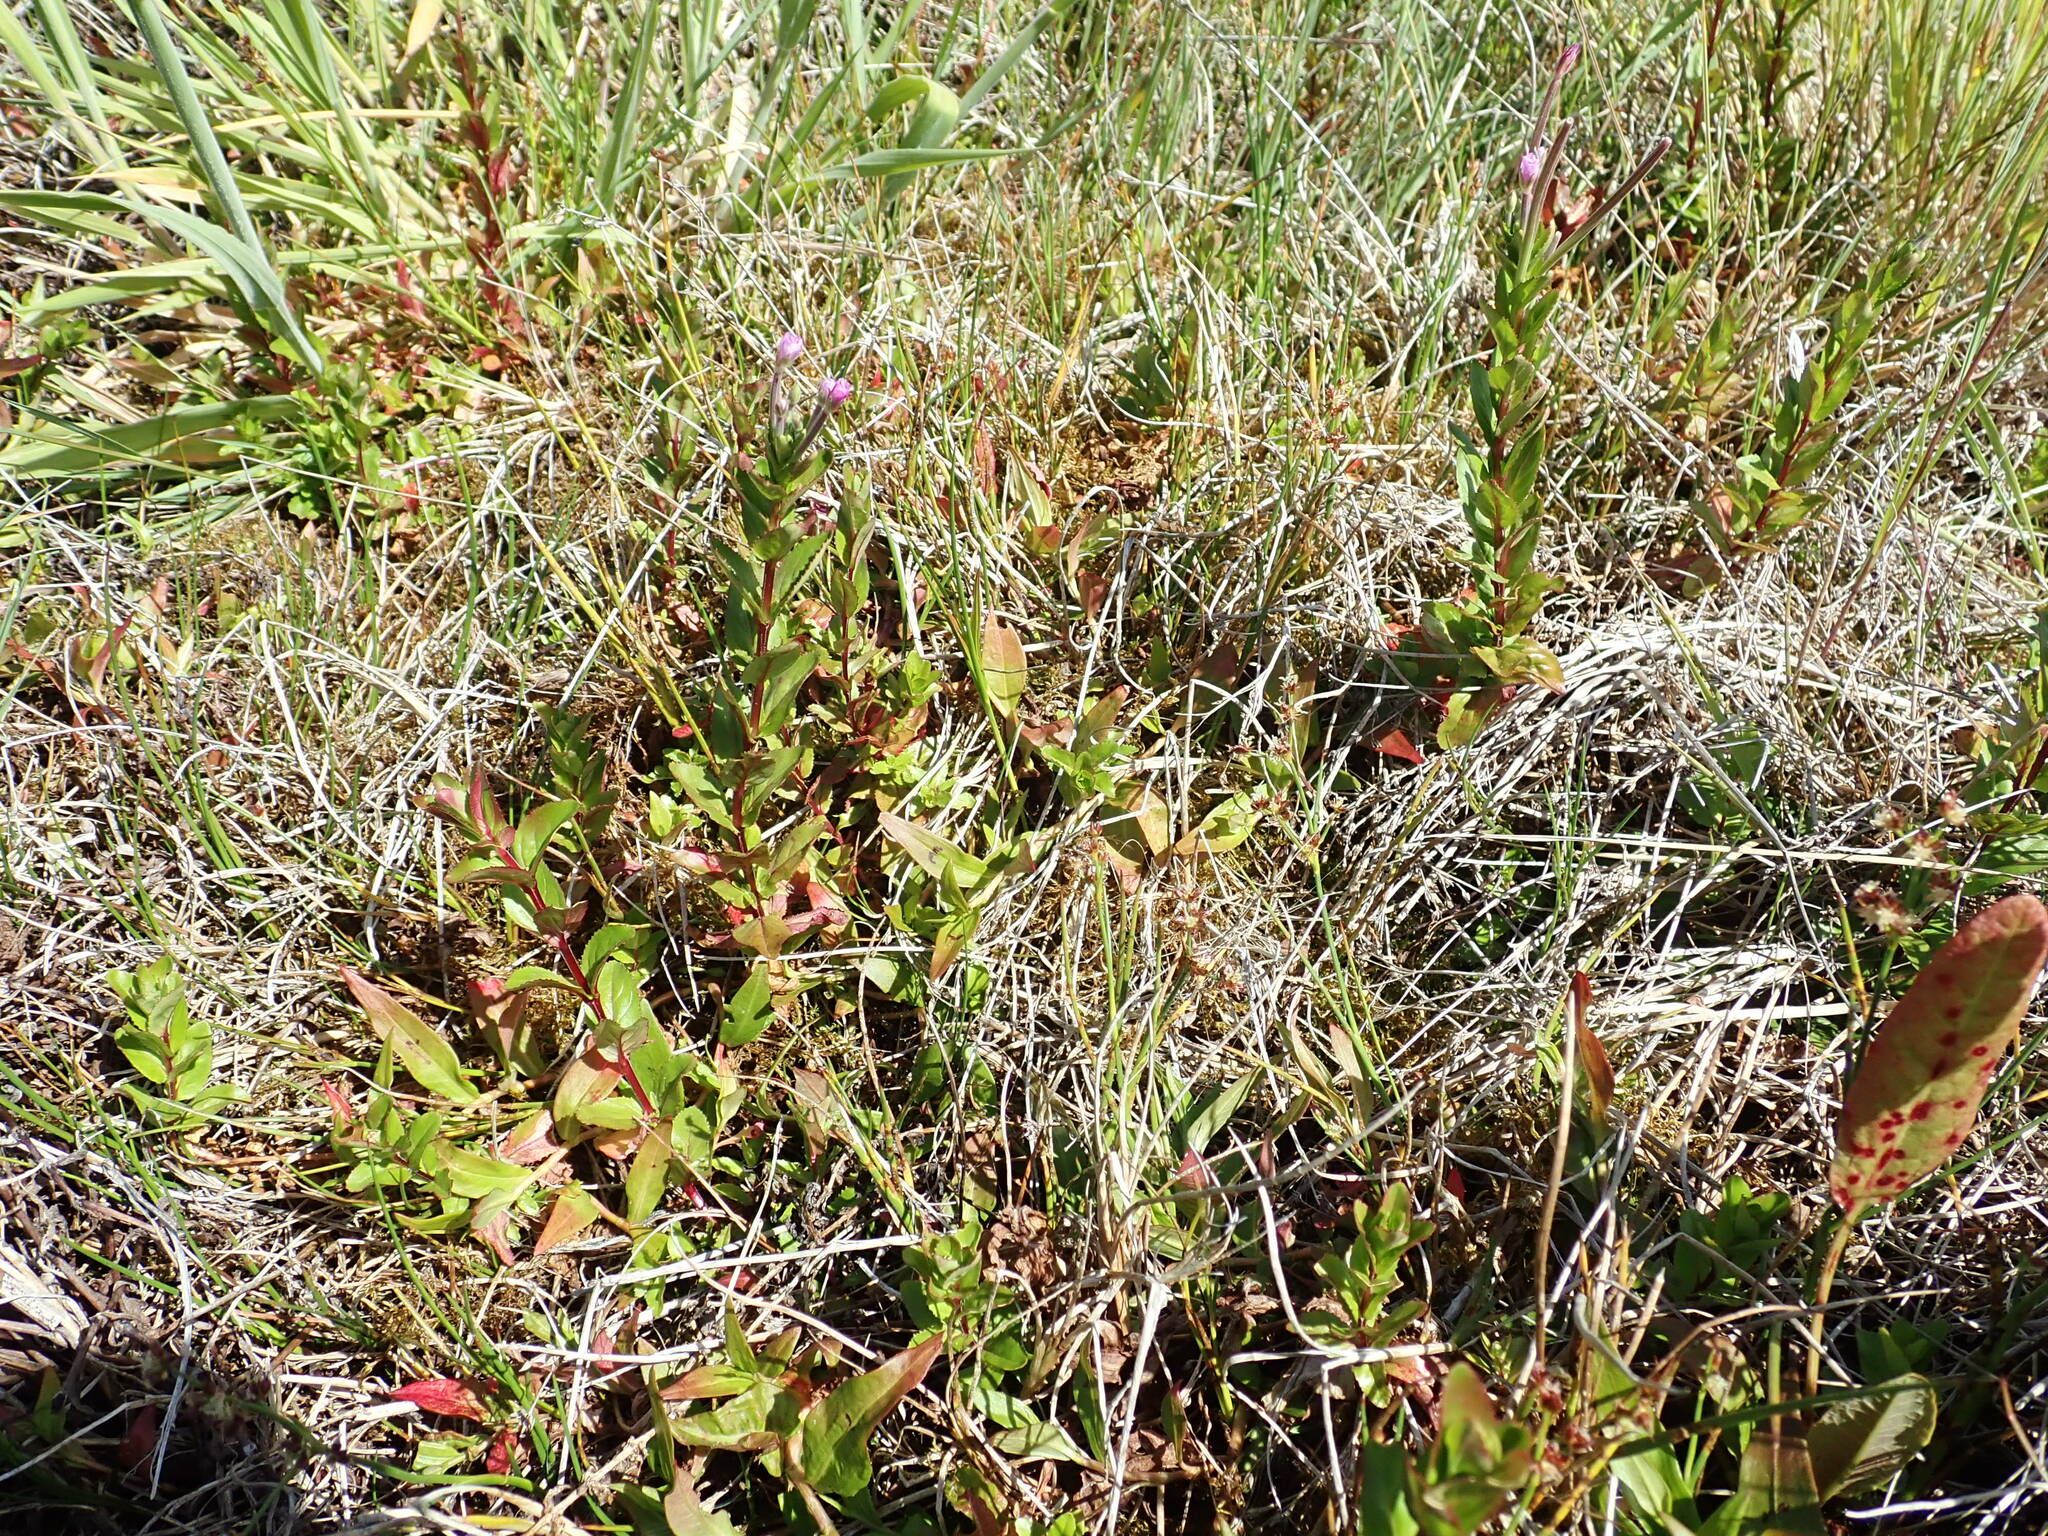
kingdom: Plantae
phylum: Tracheophyta
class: Magnoliopsida
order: Myrtales
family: Onagraceae
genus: Epilobium
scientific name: Epilobium billardiereanum
